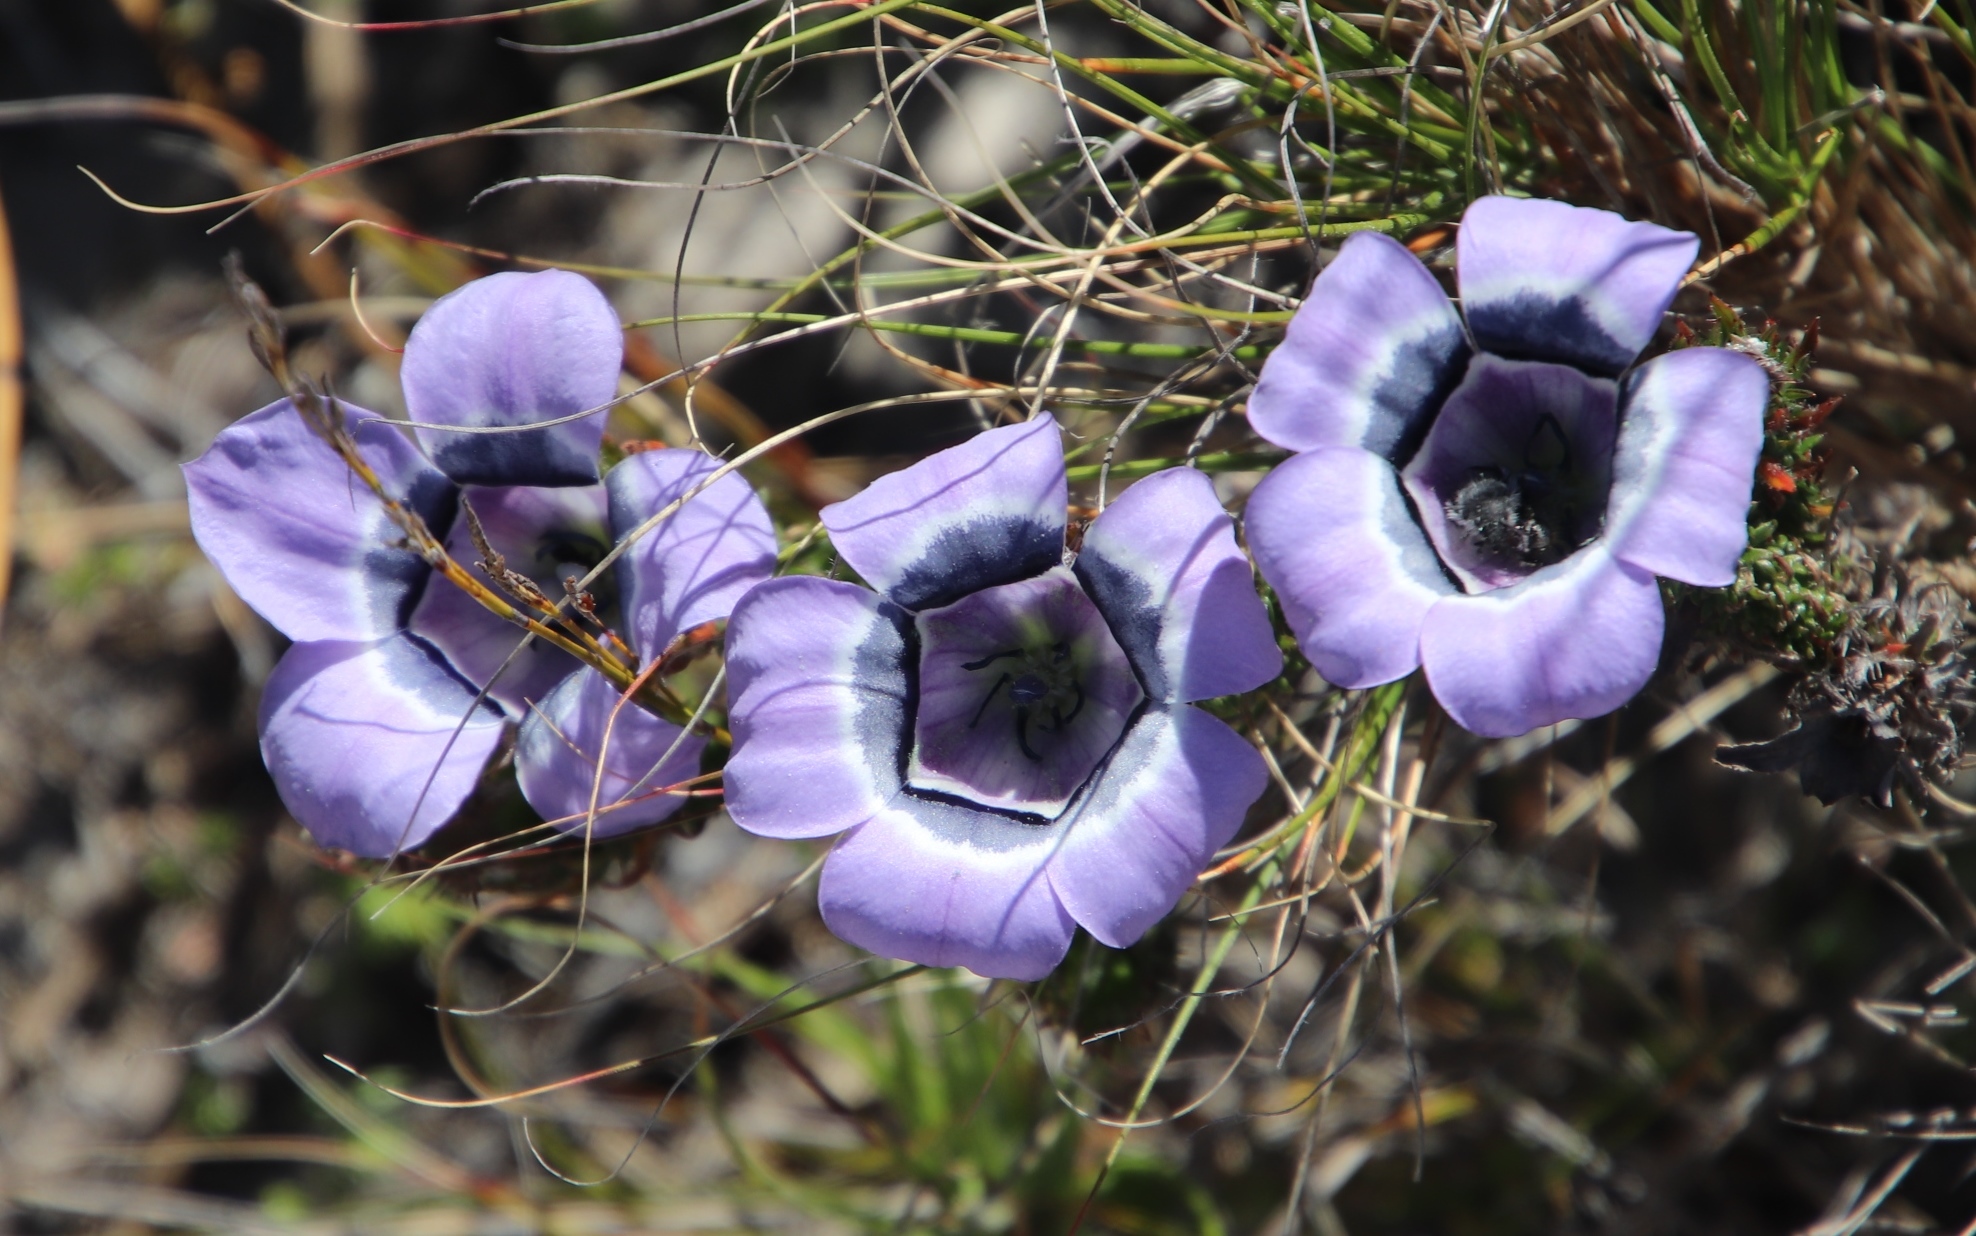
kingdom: Plantae
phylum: Tracheophyta
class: Magnoliopsida
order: Asterales
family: Campanulaceae
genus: Roella
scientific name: Roella ciliata
